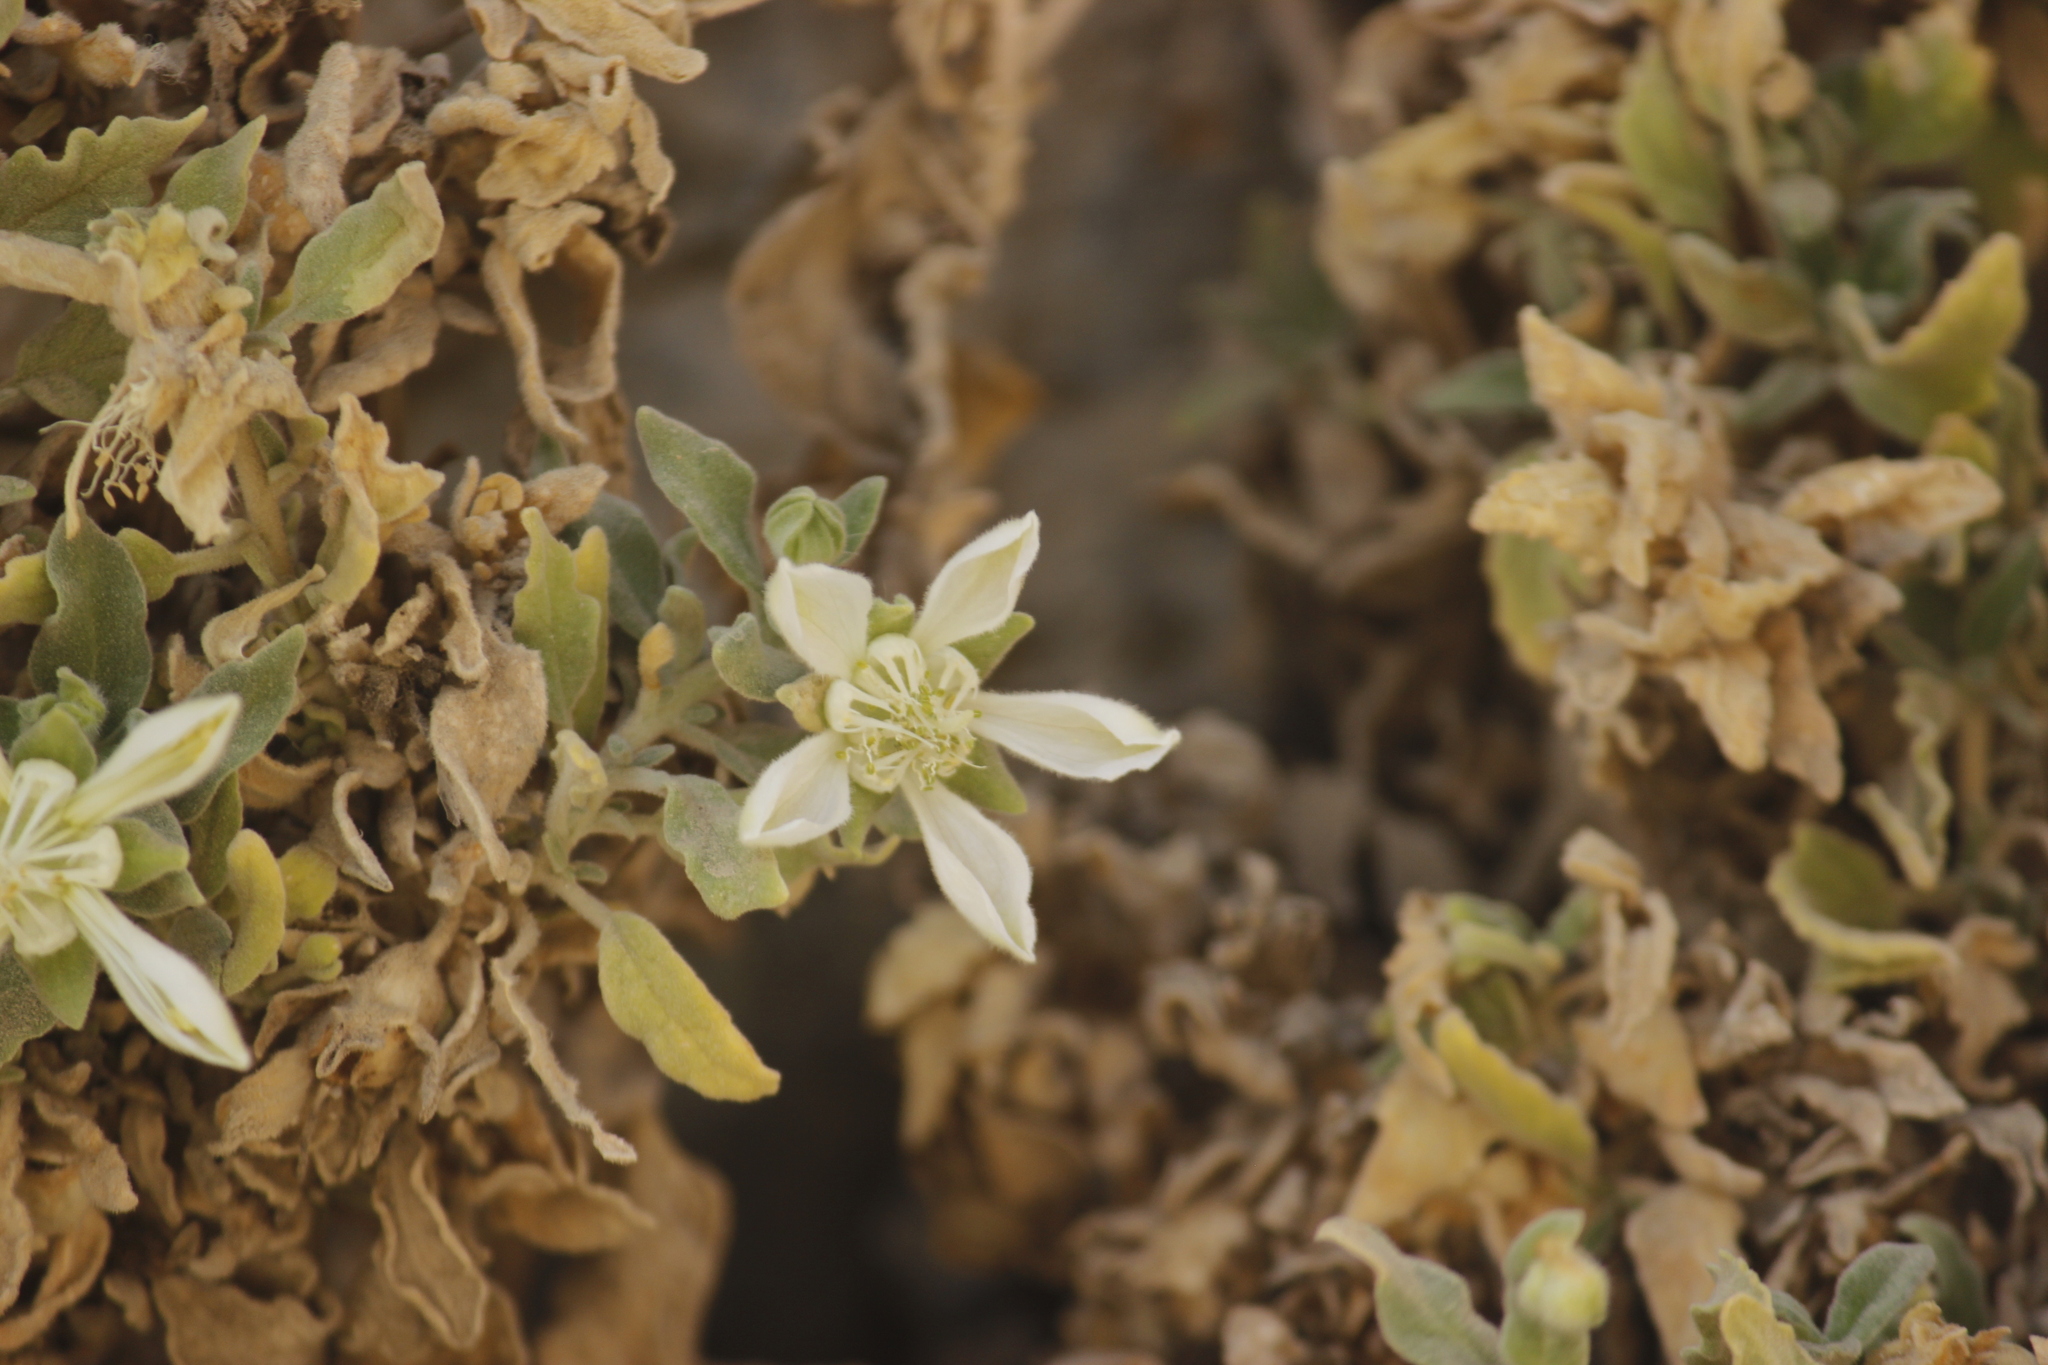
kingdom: Plantae
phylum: Tracheophyta
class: Magnoliopsida
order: Cornales
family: Loasaceae
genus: Presliophytum
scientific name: Presliophytum incanum
